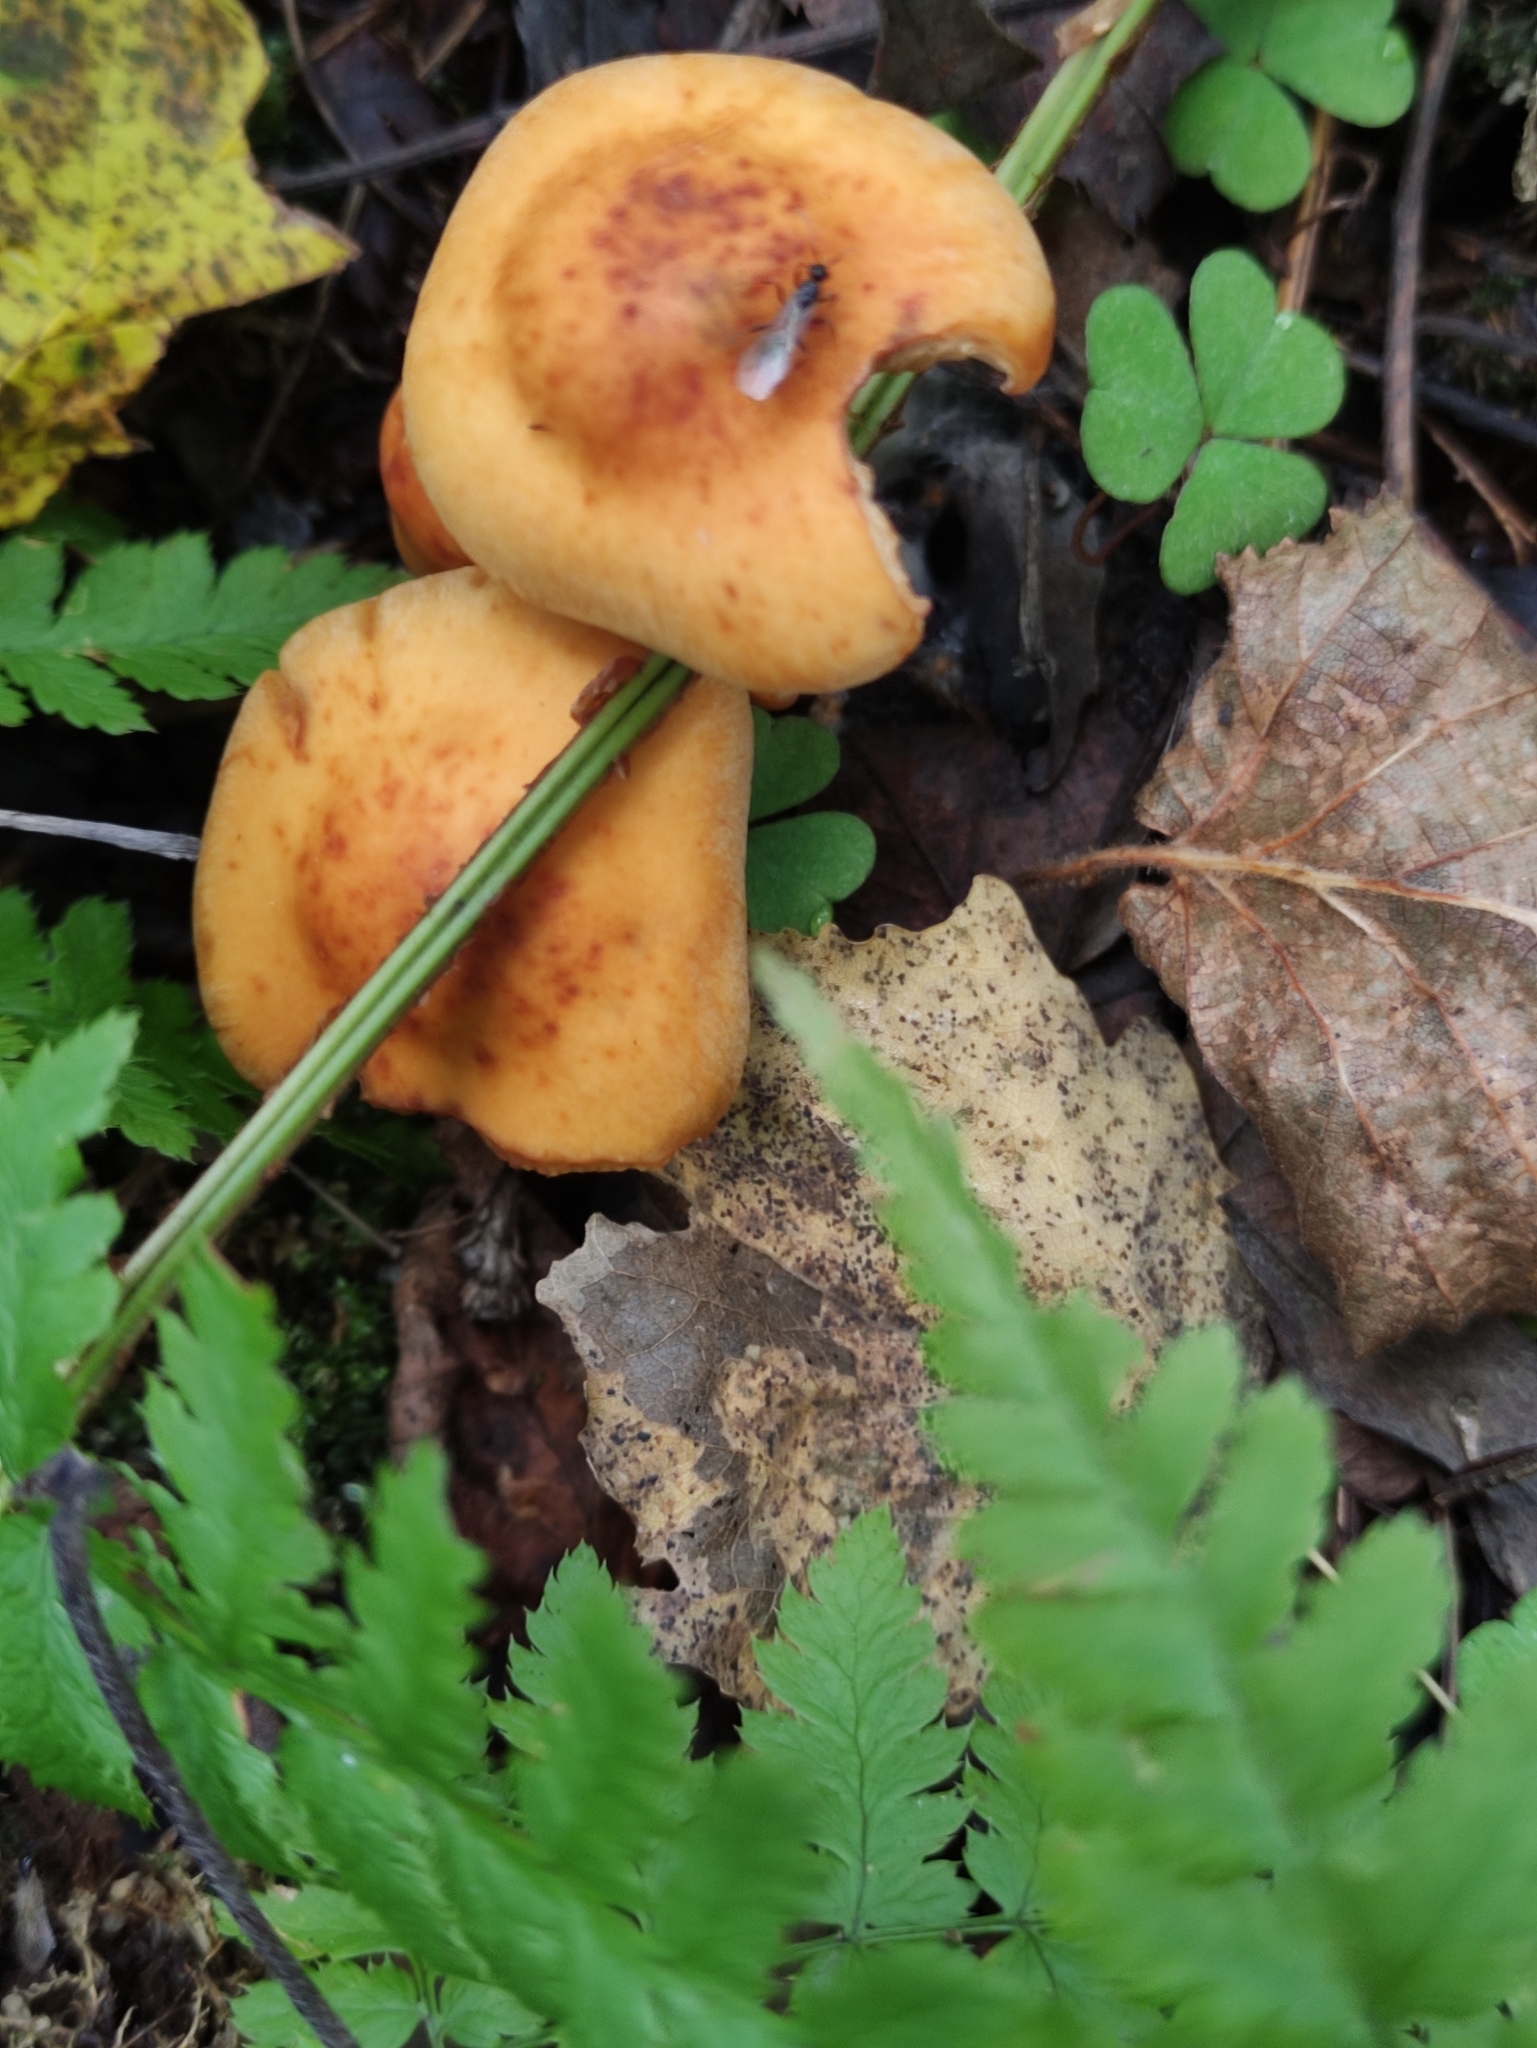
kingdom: Fungi
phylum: Basidiomycota
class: Agaricomycetes
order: Agaricales
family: Strophariaceae
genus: Hypholoma
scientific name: Hypholoma capnoides
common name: Conifer tuft
